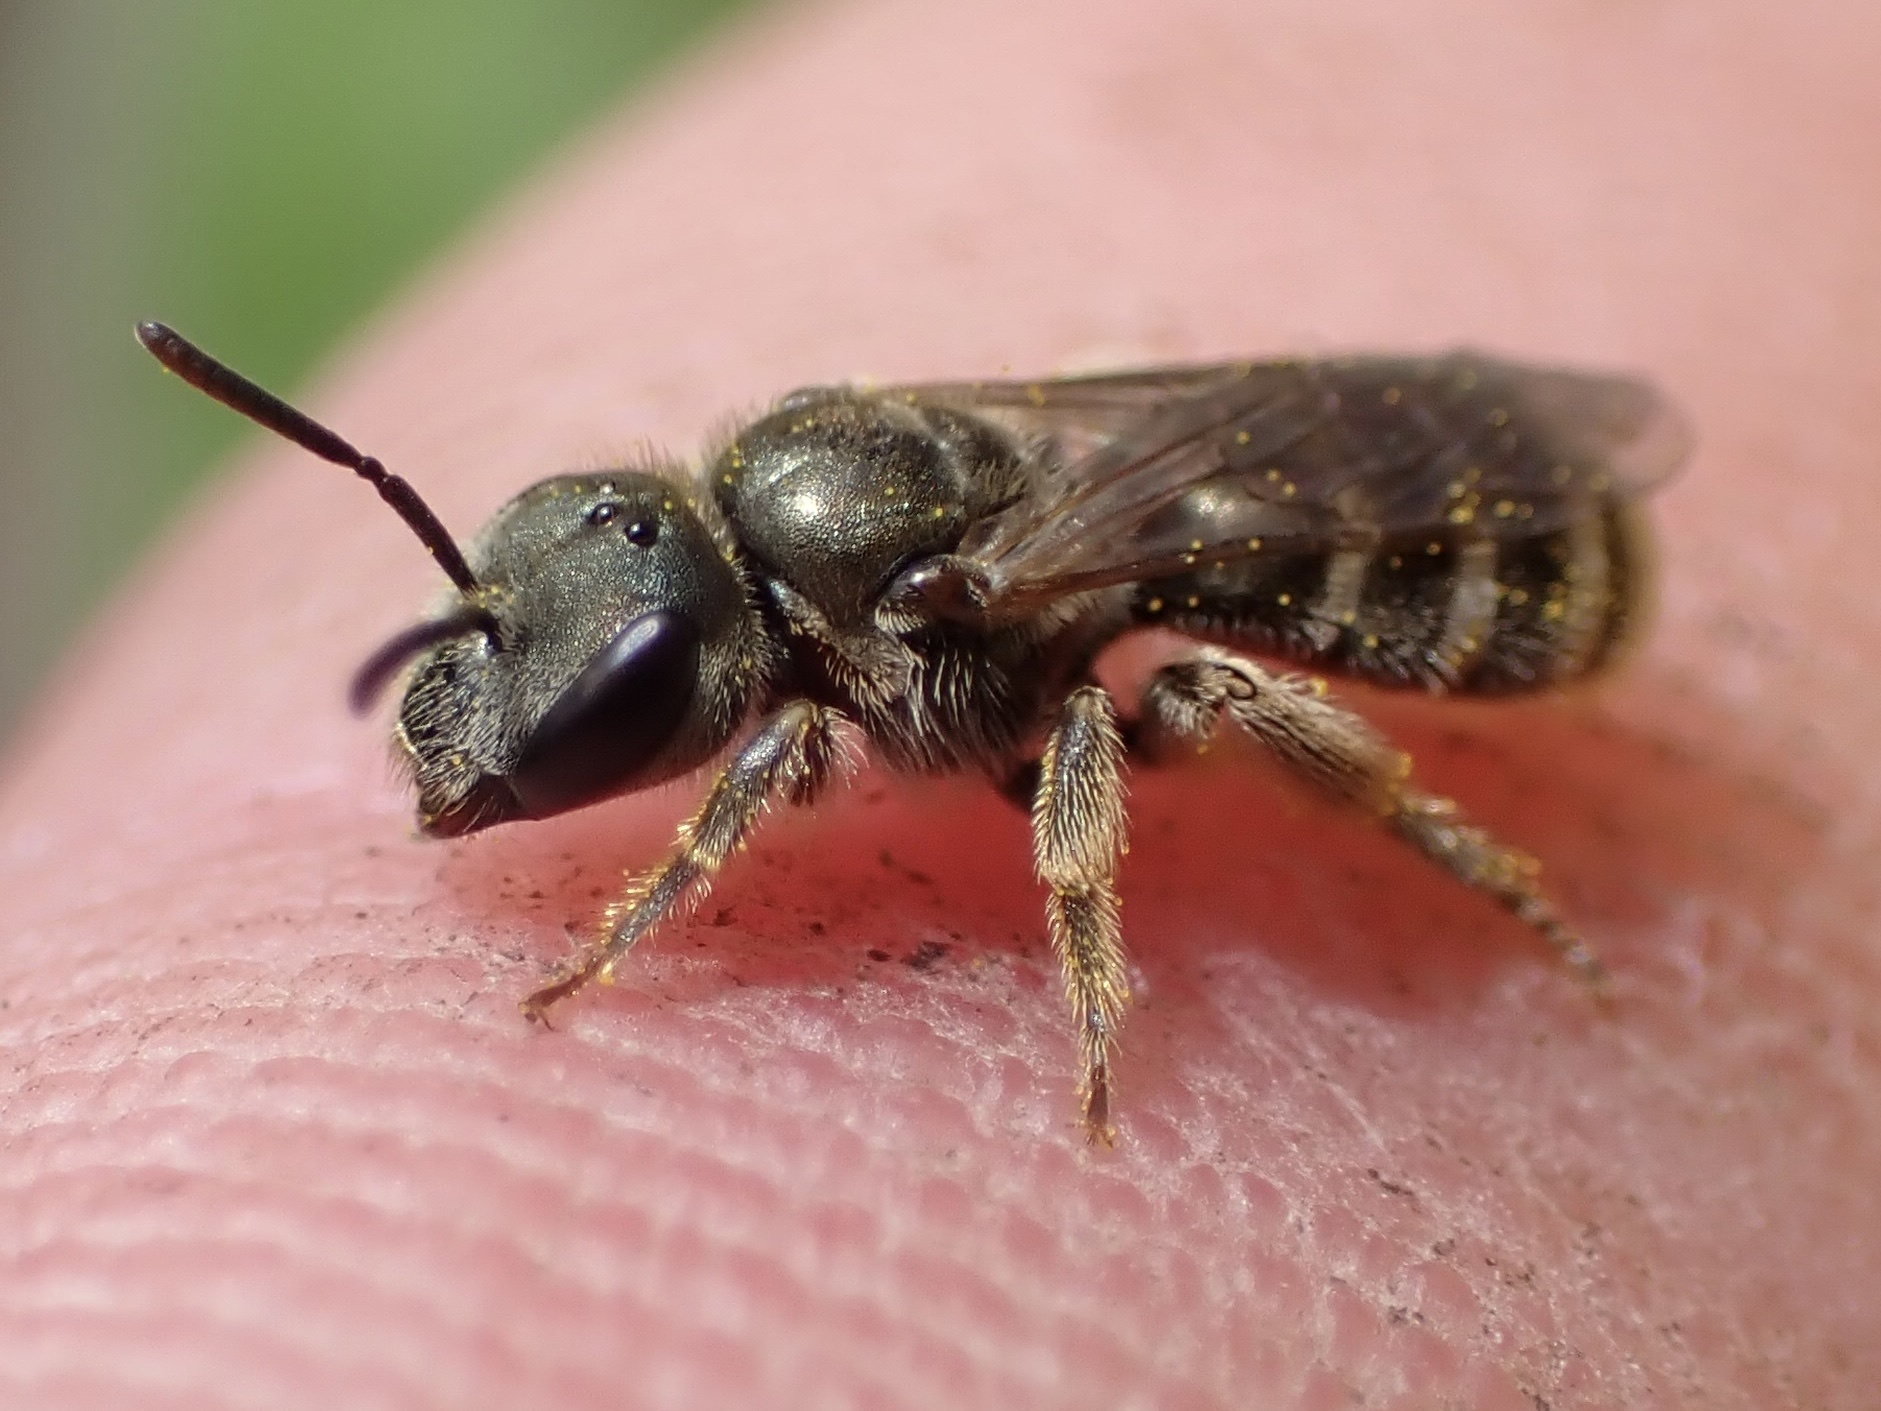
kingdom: Animalia
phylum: Arthropoda
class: Insecta
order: Hymenoptera
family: Halictidae
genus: Halictus
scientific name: Halictus tripartitus
